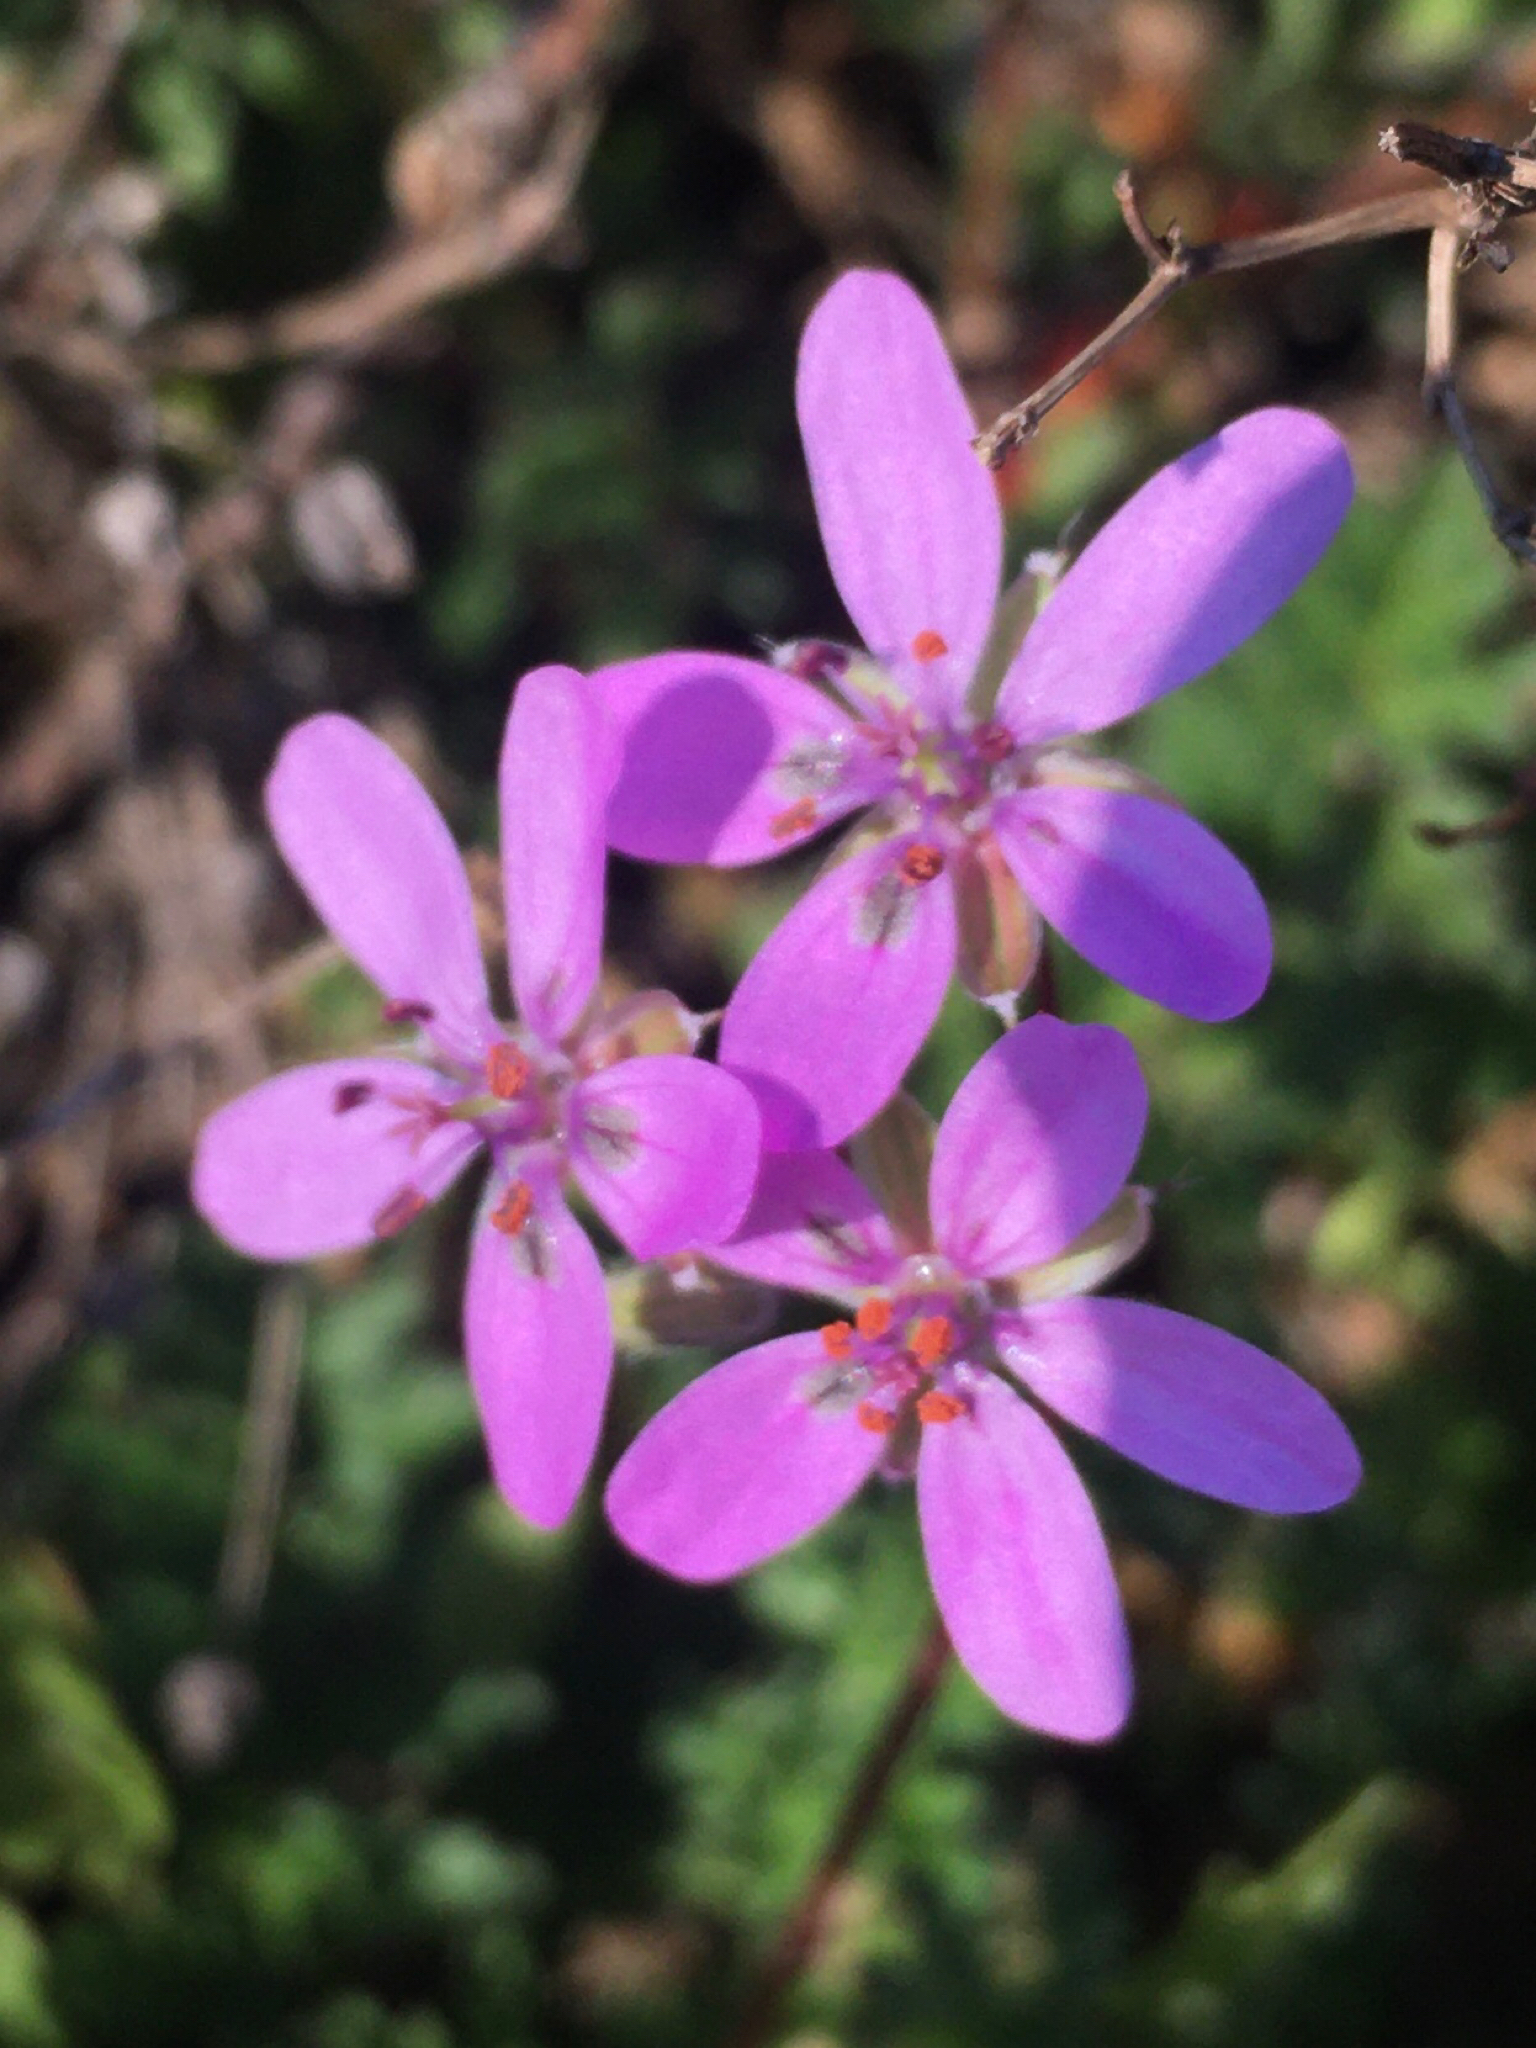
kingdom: Plantae
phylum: Tracheophyta
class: Magnoliopsida
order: Geraniales
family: Geraniaceae
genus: Erodium
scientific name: Erodium cicutarium
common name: Common stork's-bill
